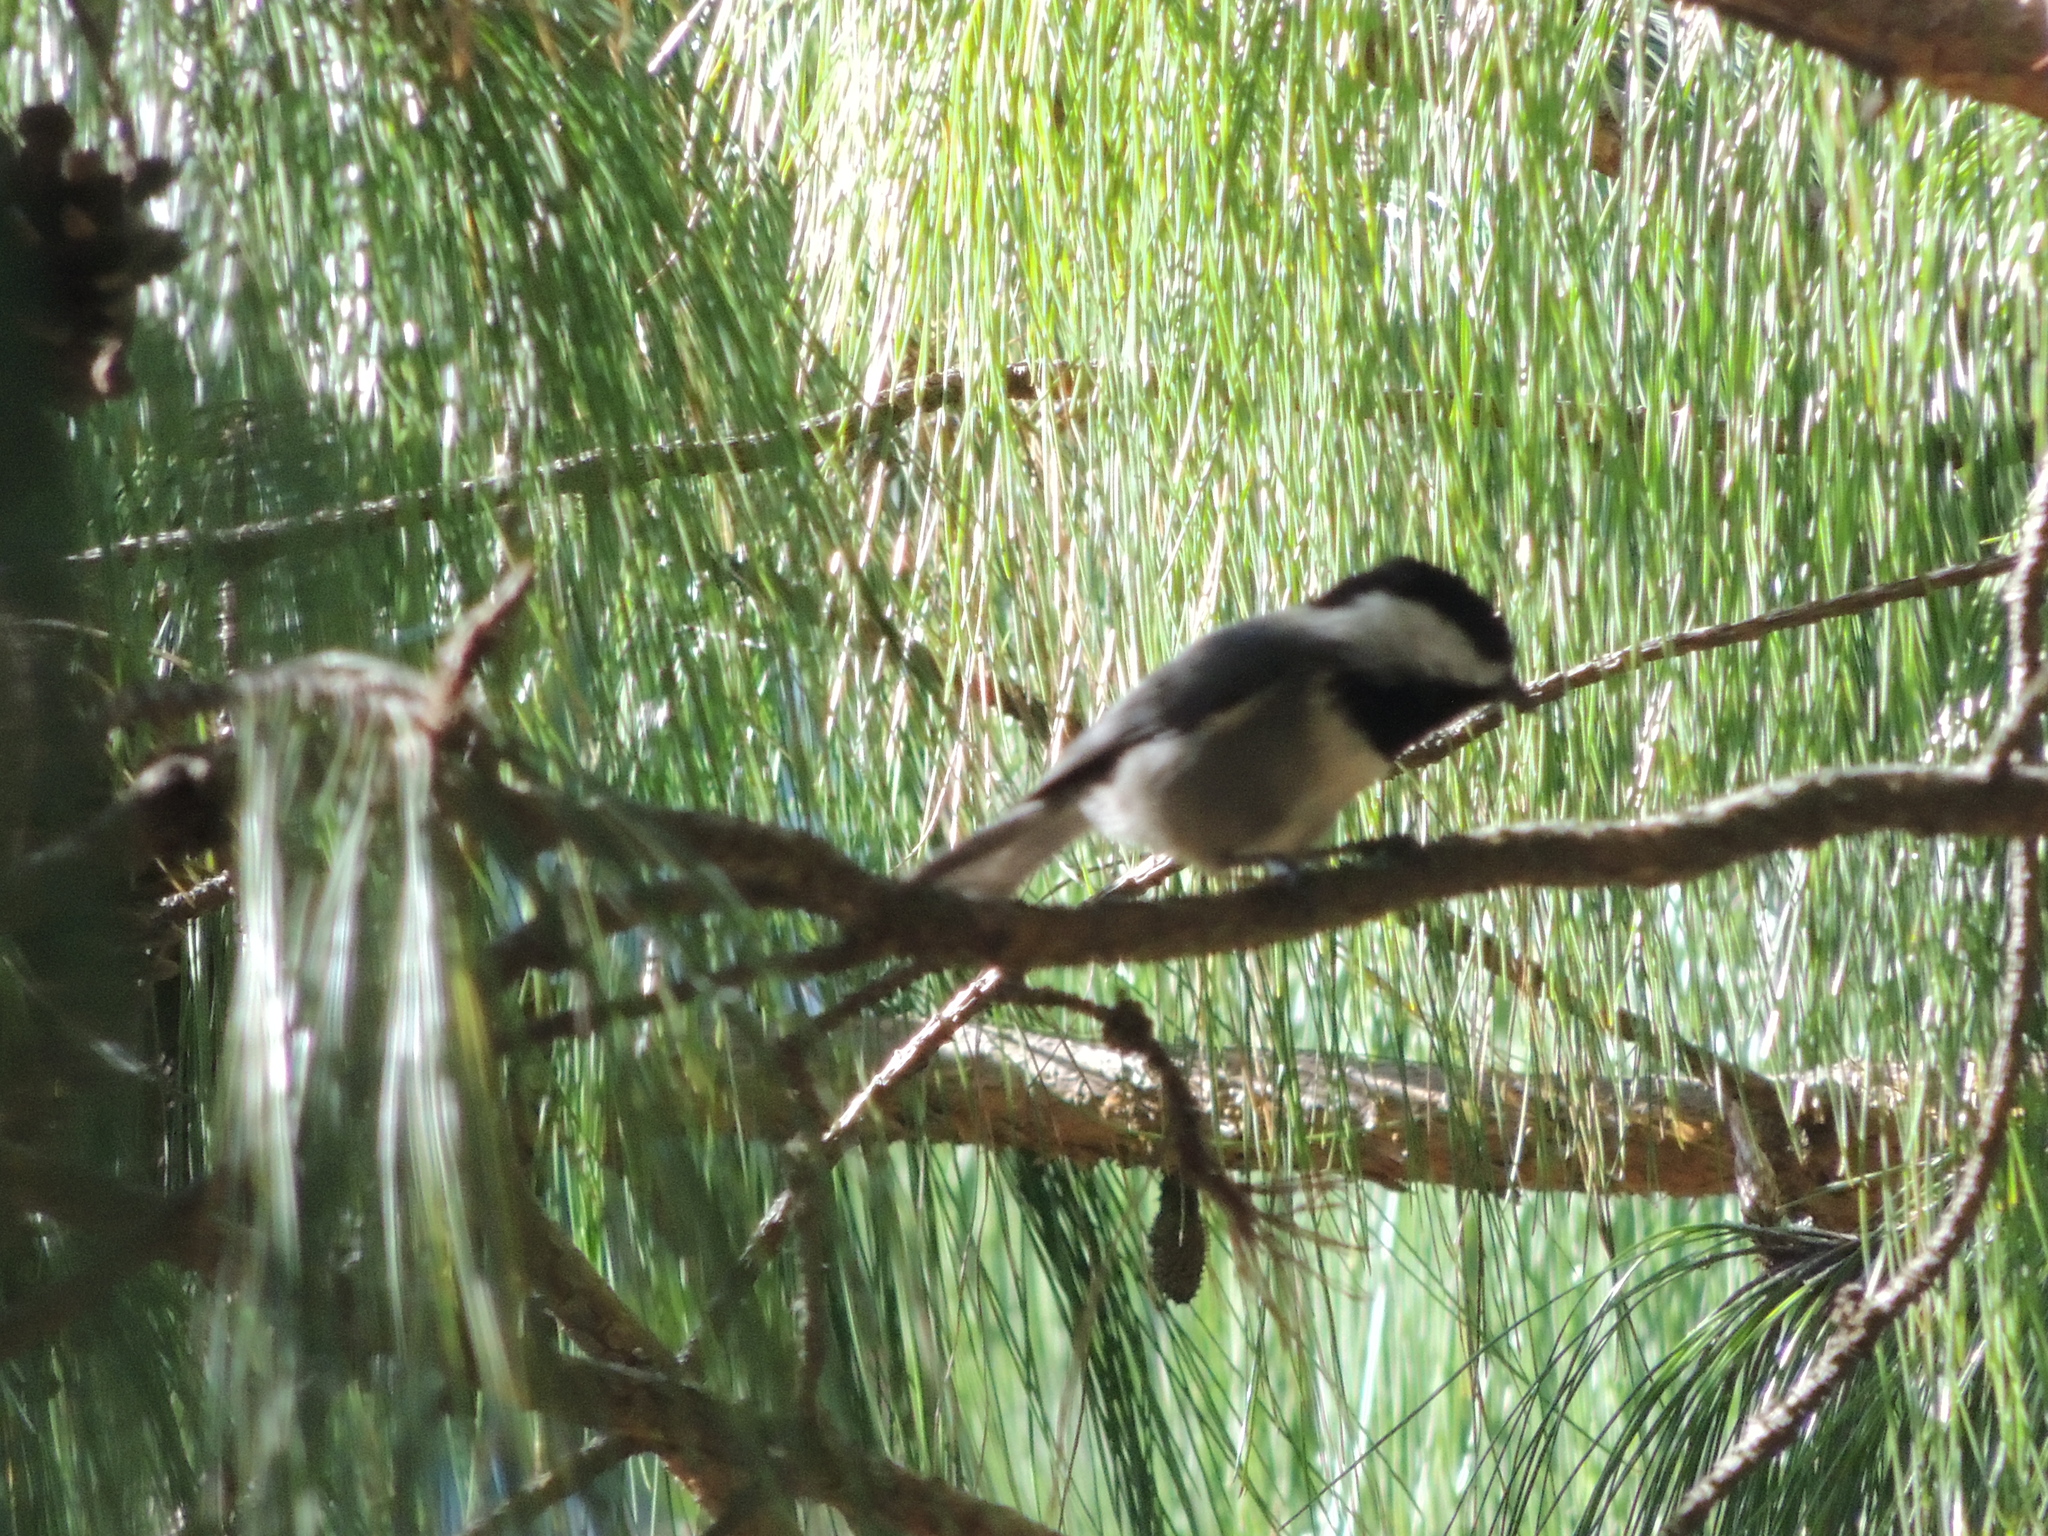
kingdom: Animalia
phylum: Chordata
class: Aves
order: Passeriformes
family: Paridae
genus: Poecile
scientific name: Poecile sclateri
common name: Mexican chickadee
